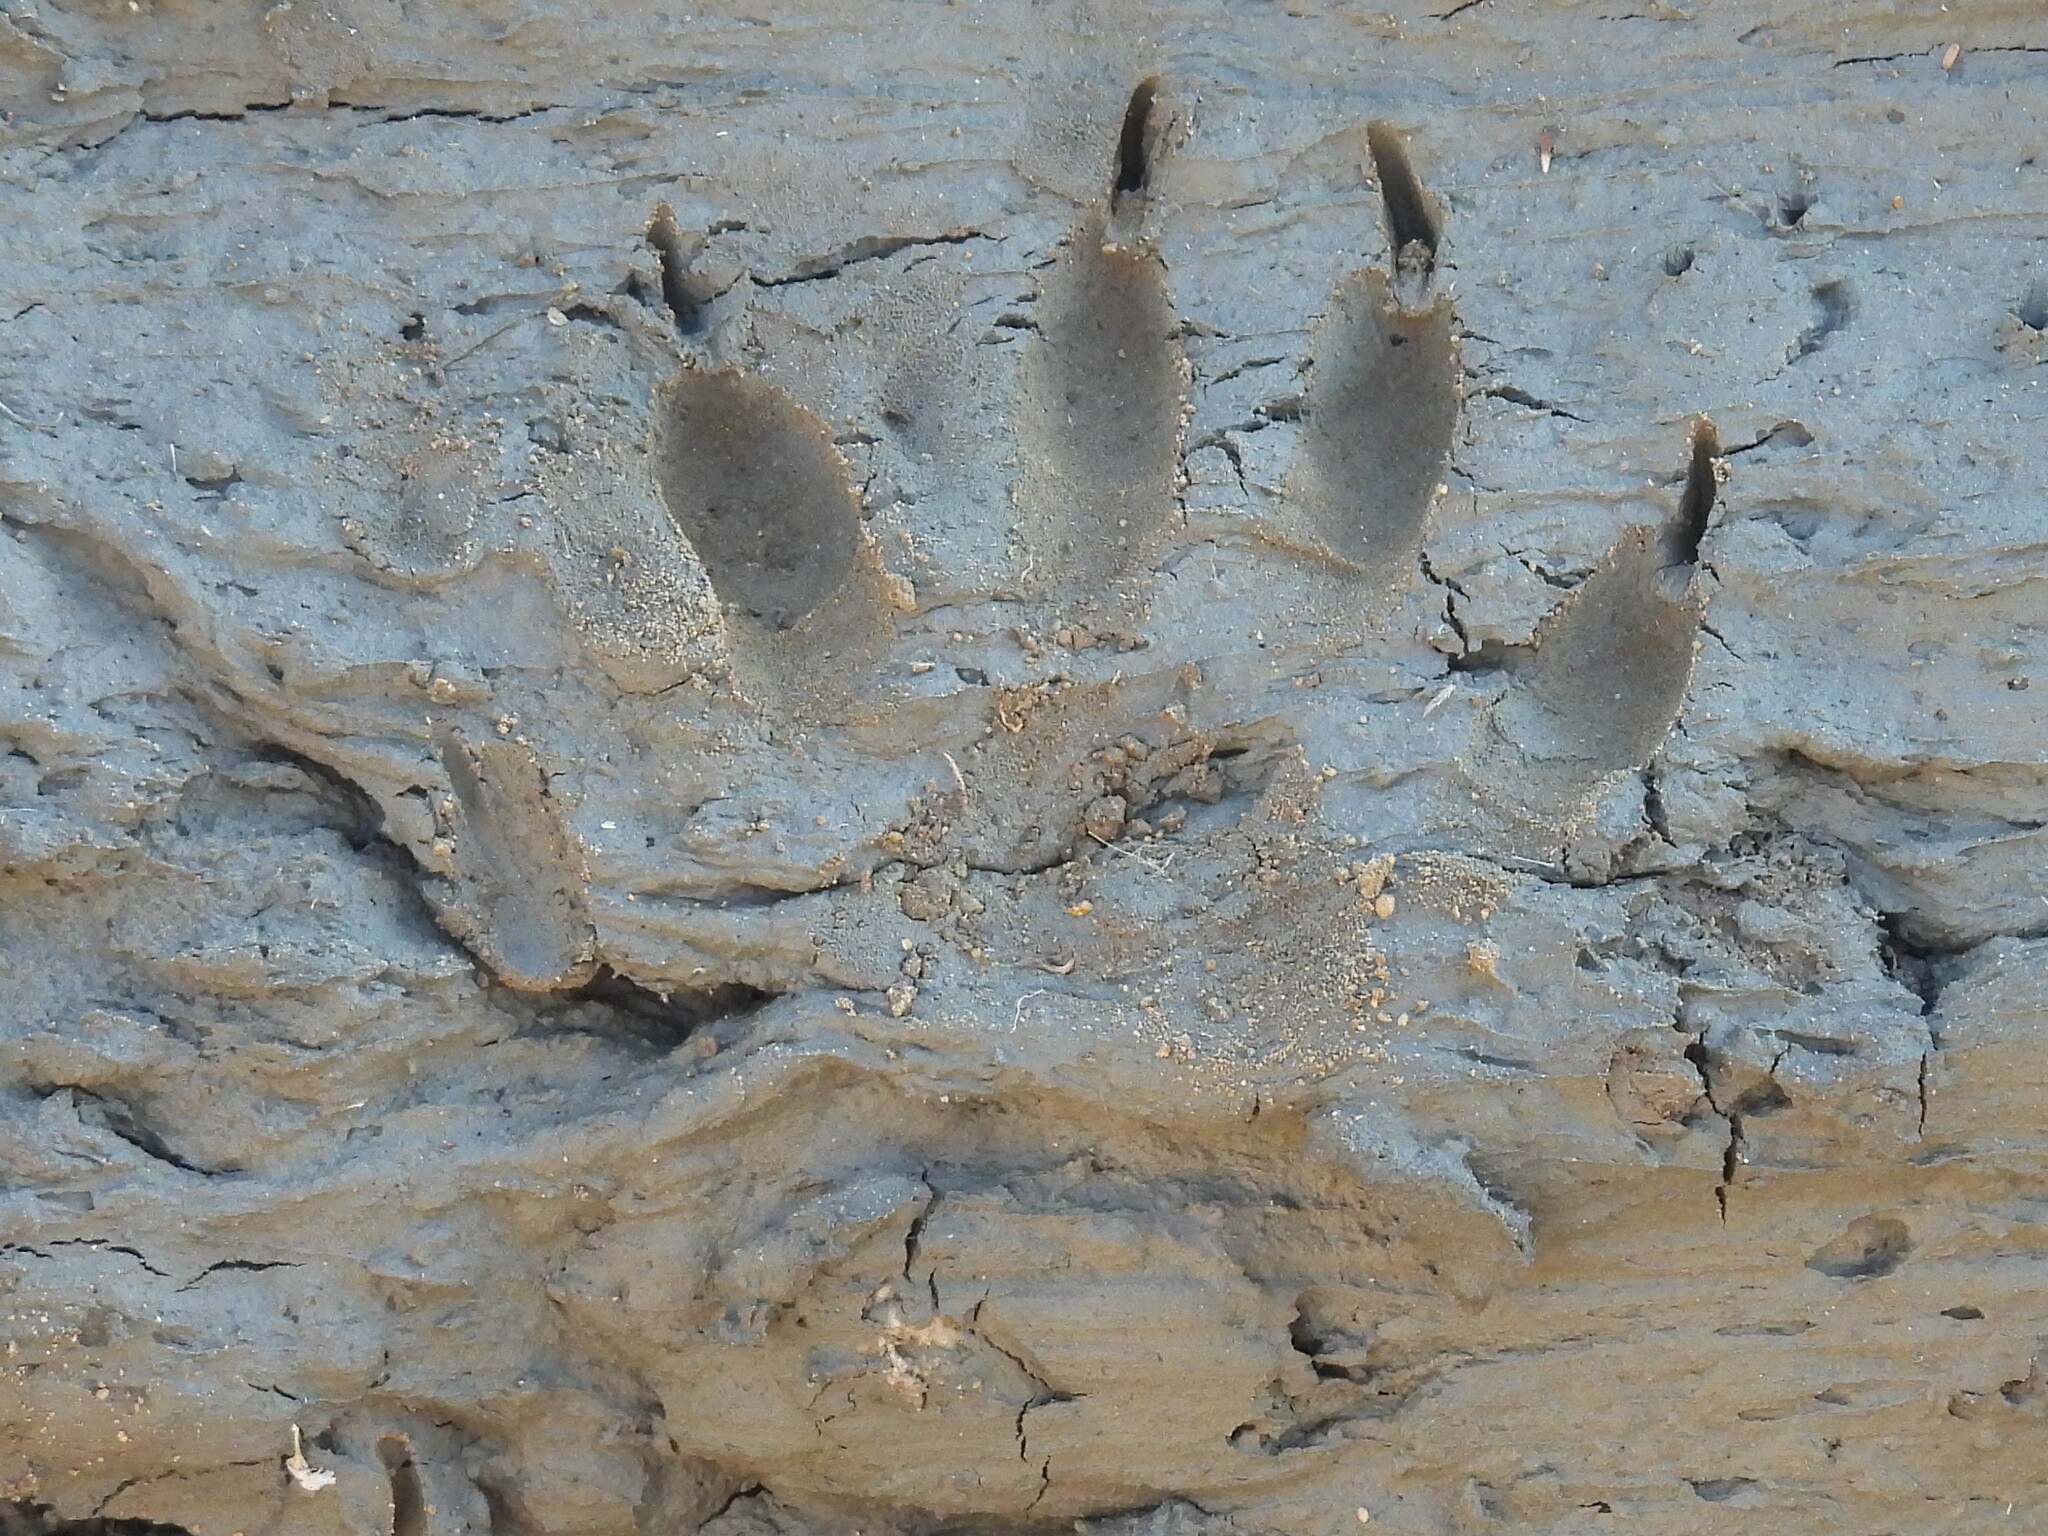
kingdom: Animalia
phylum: Chordata
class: Mammalia
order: Carnivora
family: Procyonidae
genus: Procyon
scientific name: Procyon lotor
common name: Raccoon
